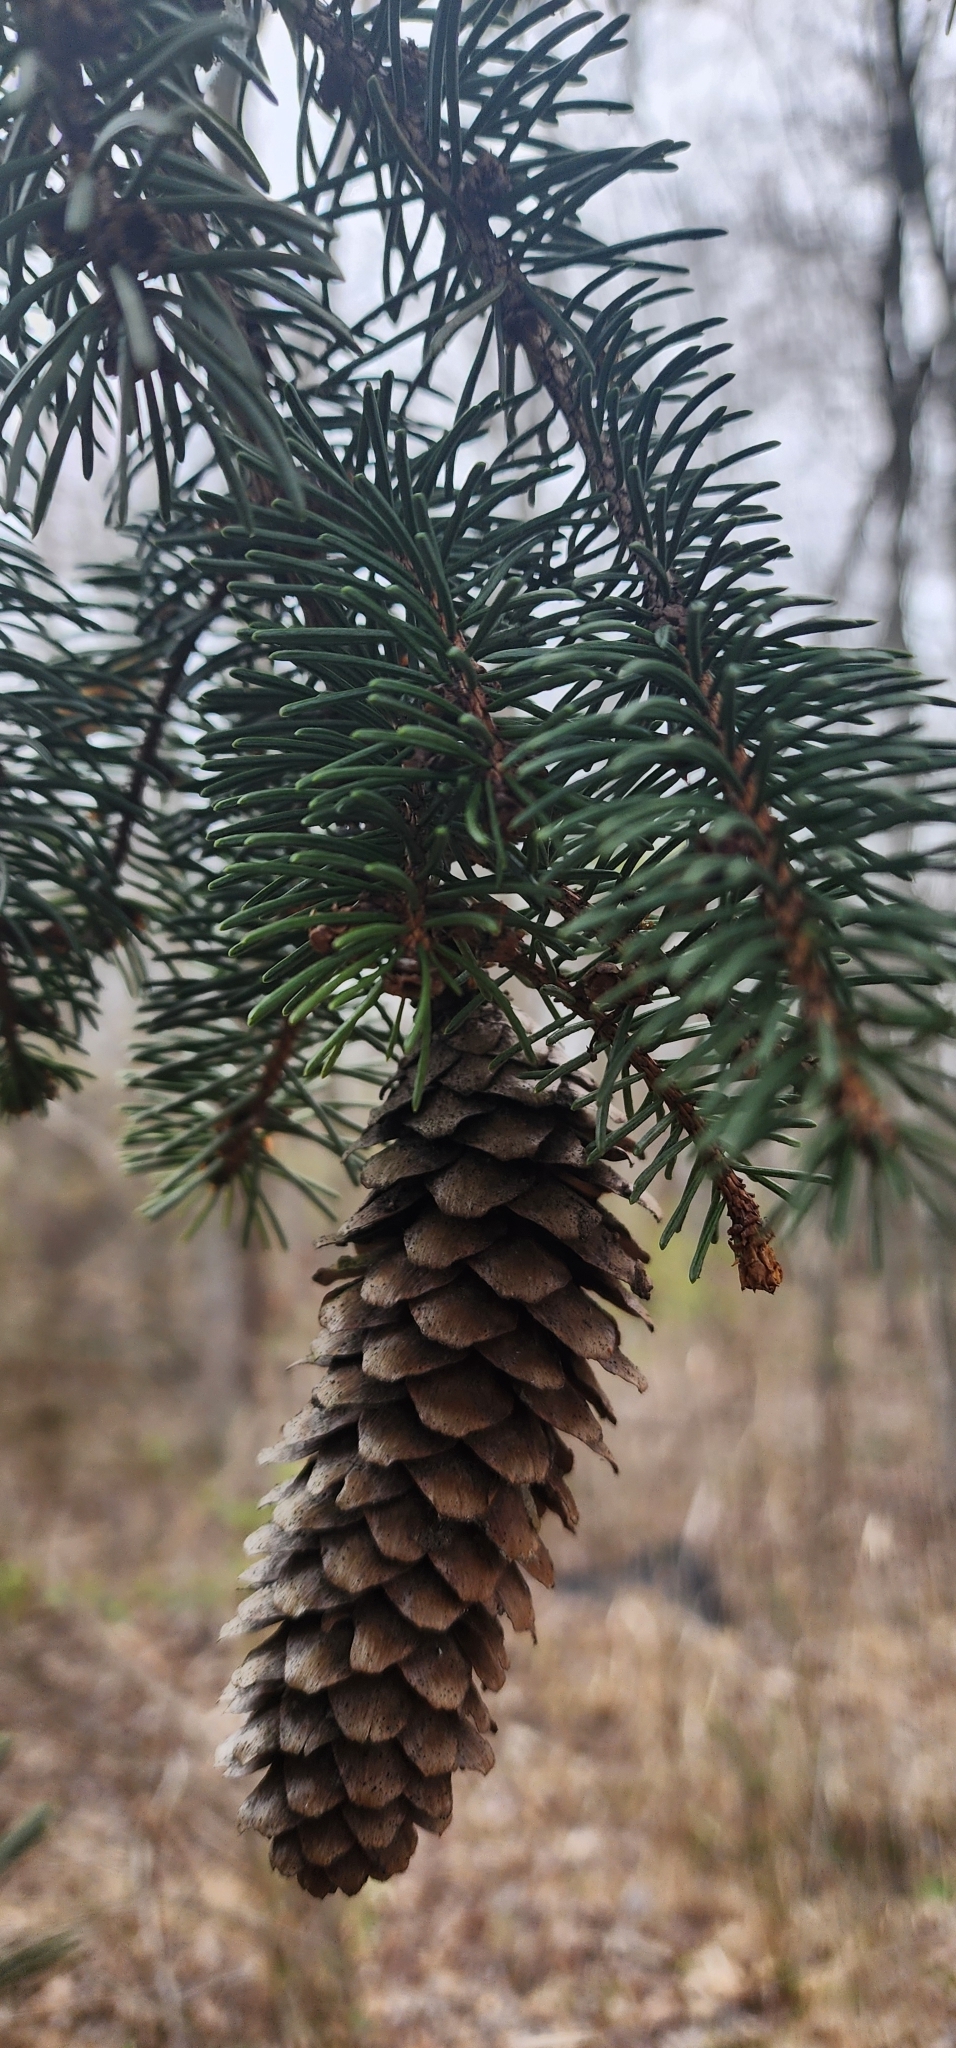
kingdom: Plantae
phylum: Tracheophyta
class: Pinopsida
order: Pinales
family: Pinaceae
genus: Picea
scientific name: Picea abies
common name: Norway spruce
